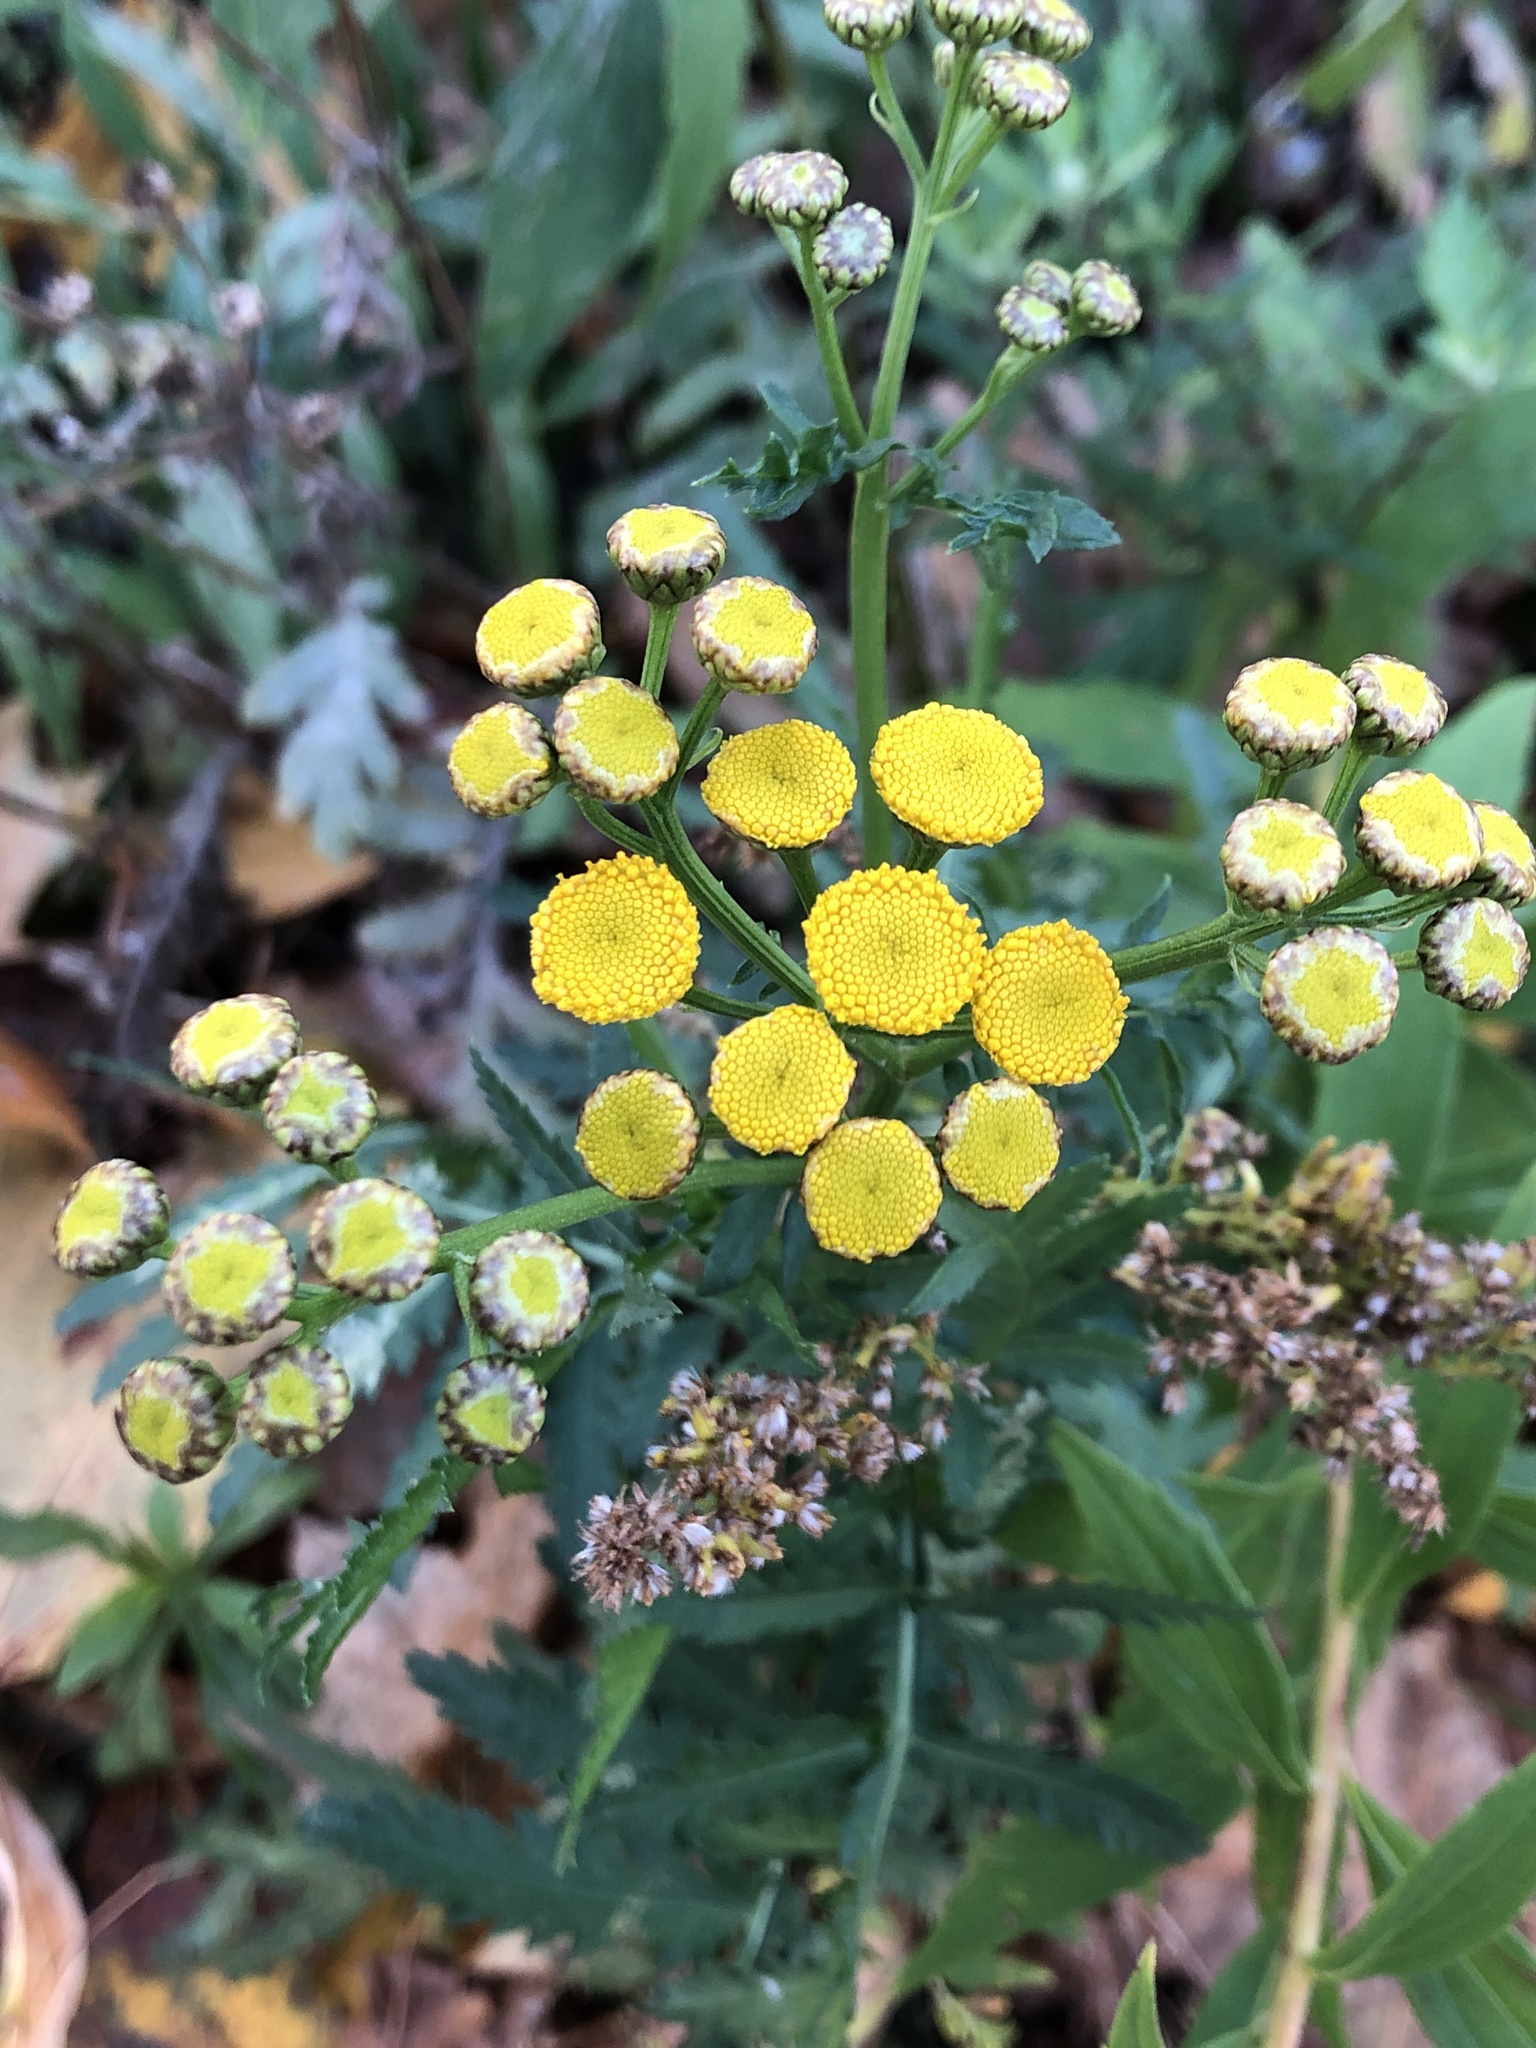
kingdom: Plantae
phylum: Tracheophyta
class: Magnoliopsida
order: Asterales
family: Asteraceae
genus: Tanacetum
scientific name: Tanacetum vulgare
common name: Common tansy
